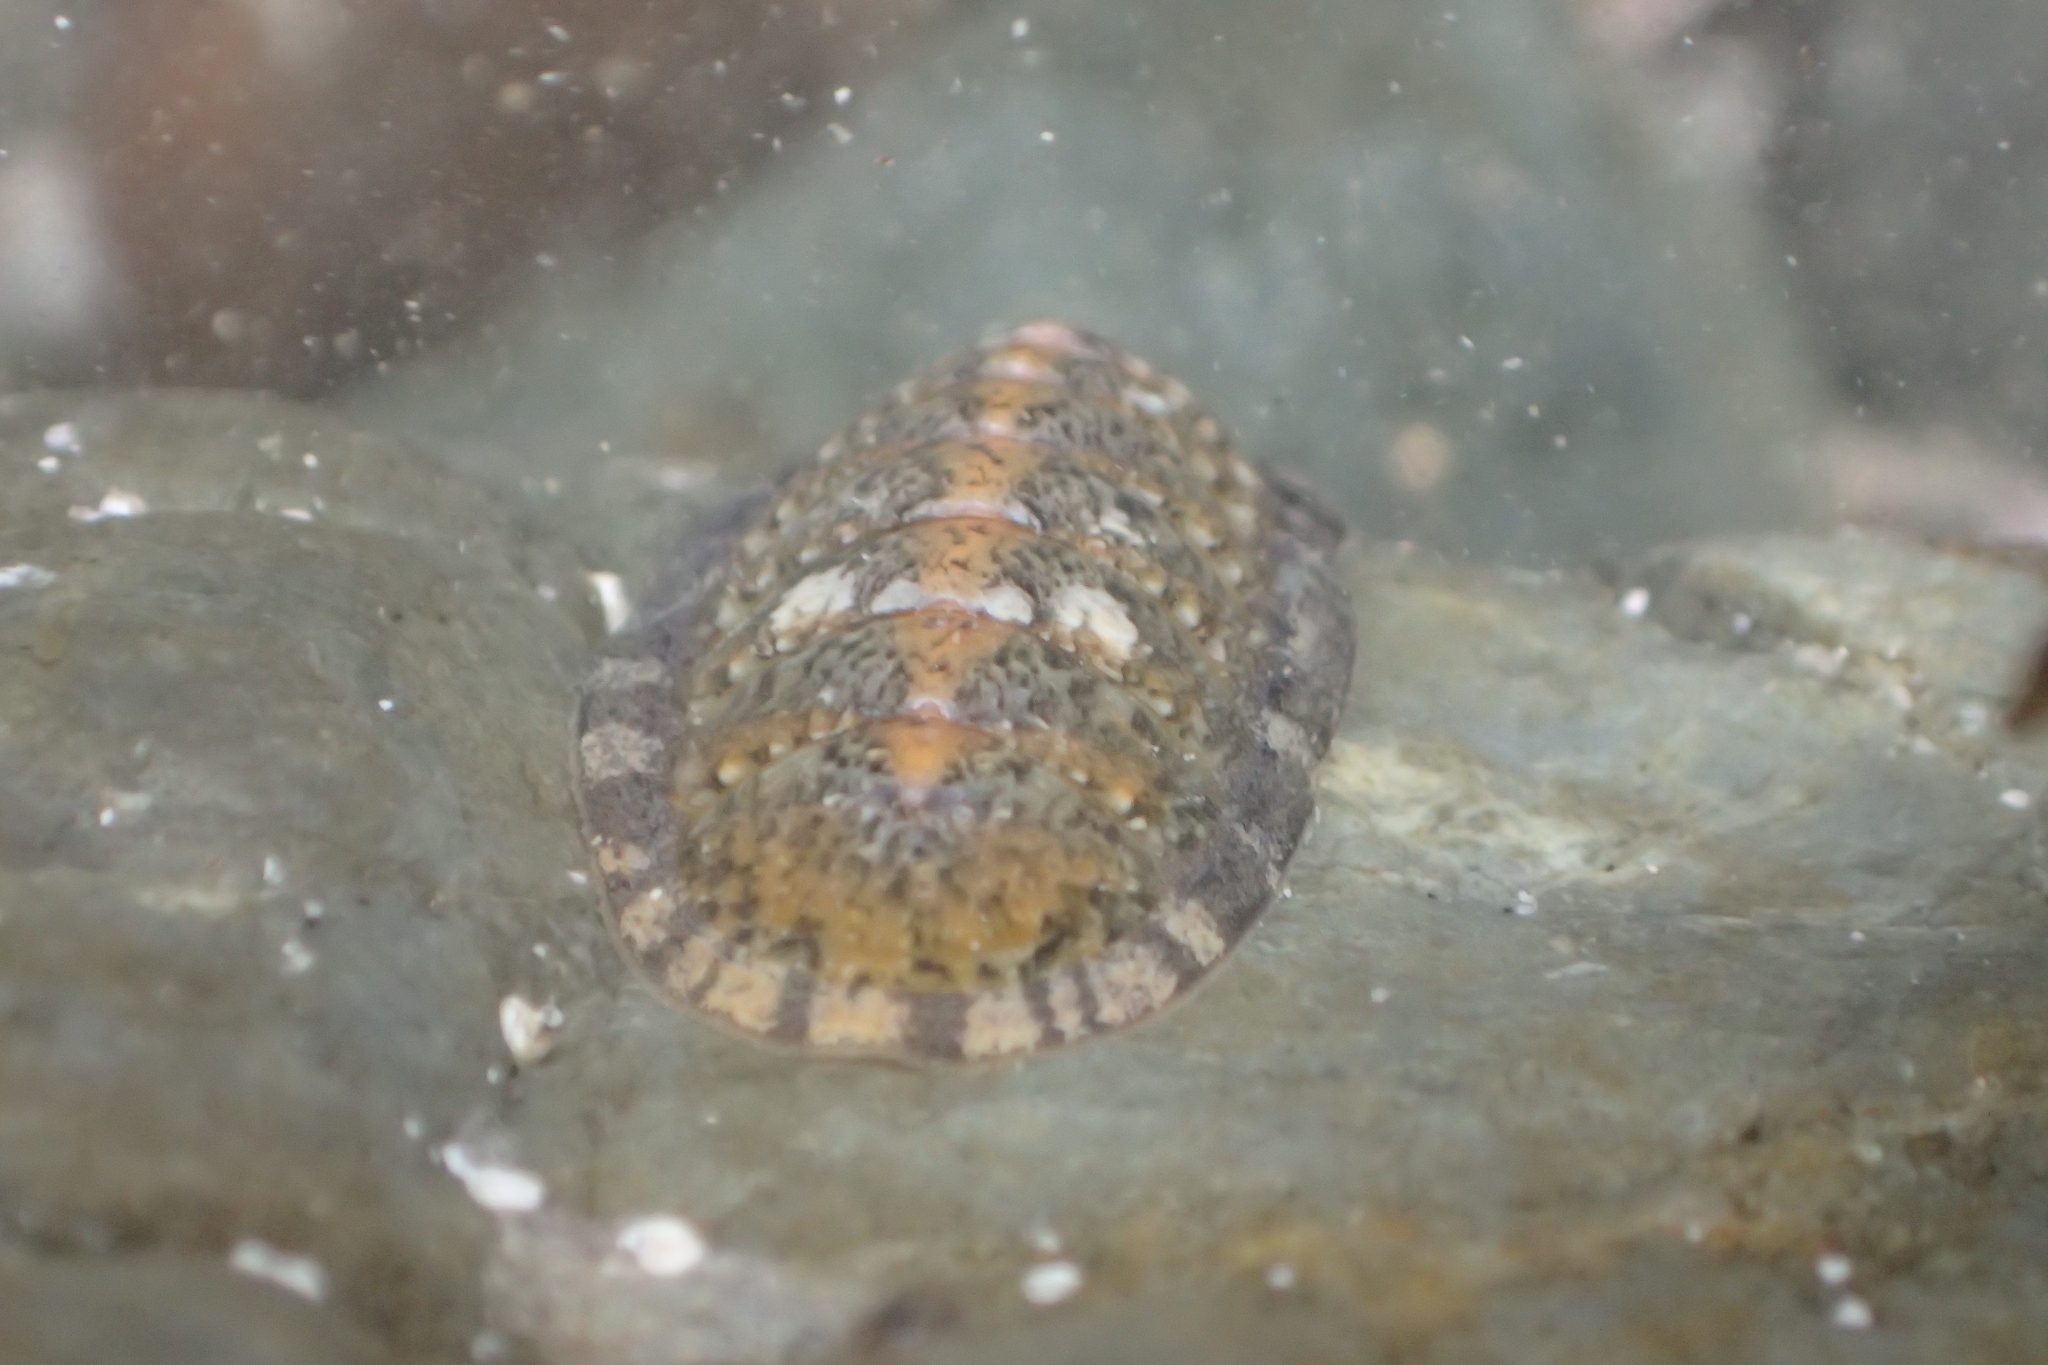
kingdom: Animalia
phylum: Mollusca
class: Polyplacophora
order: Chitonida
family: Ischnochitonidae
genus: Ischnochiton
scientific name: Ischnochiton maorianus
